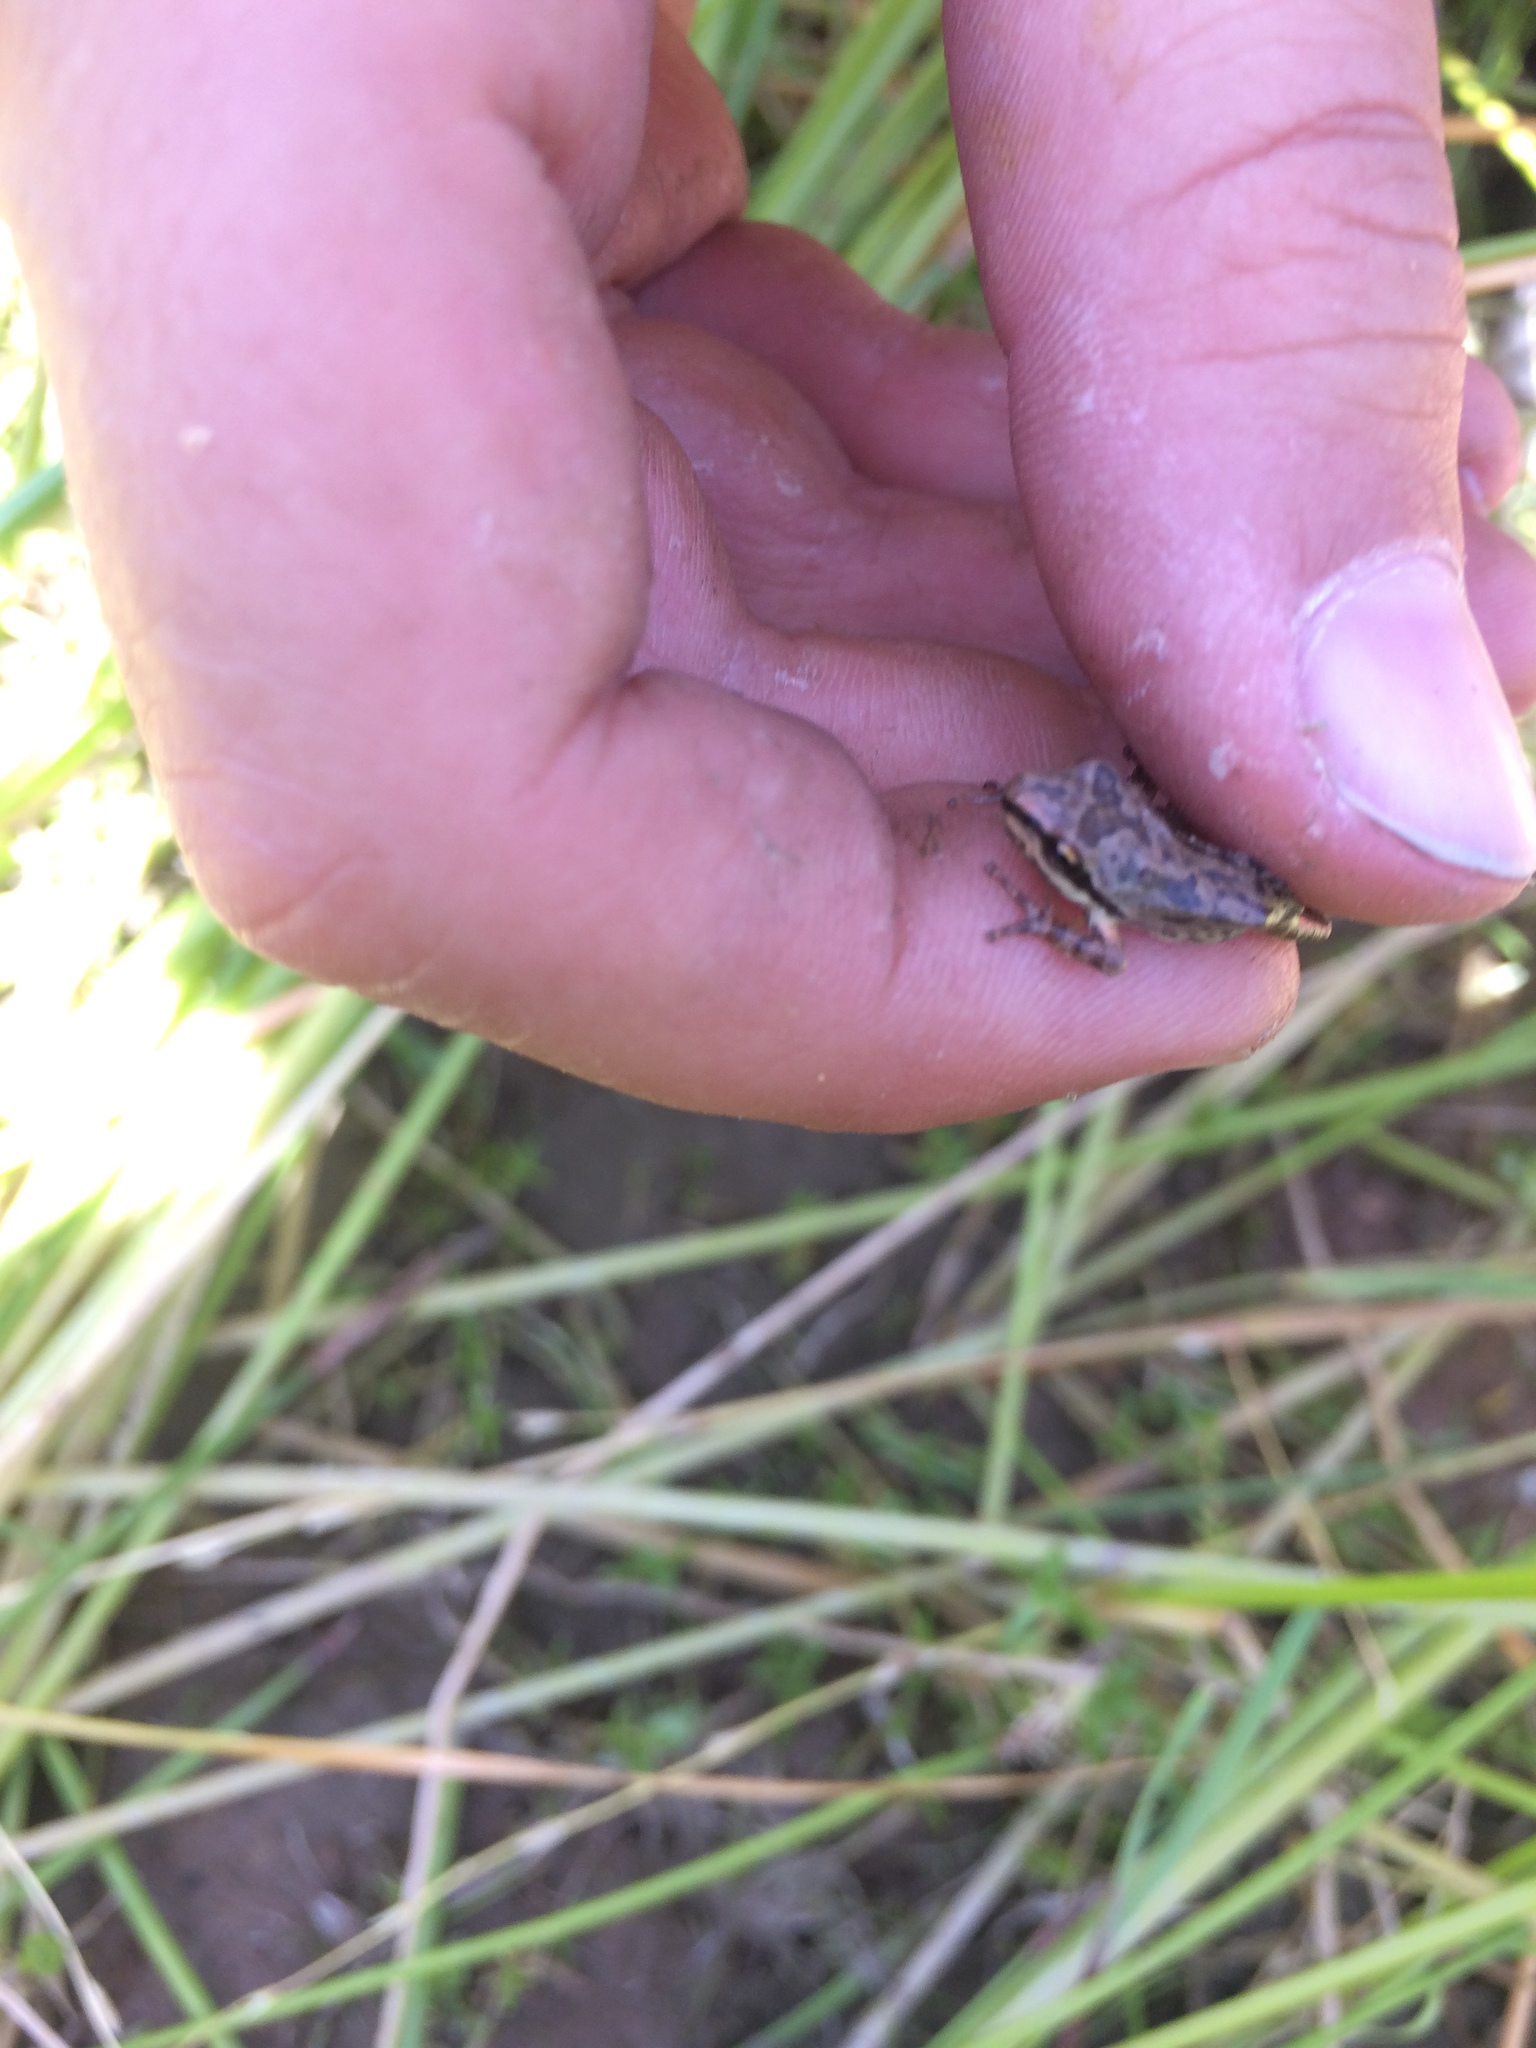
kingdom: Animalia
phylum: Chordata
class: Amphibia
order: Anura
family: Hylidae
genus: Pseudacris
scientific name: Pseudacris regilla
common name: Pacific chorus frog
